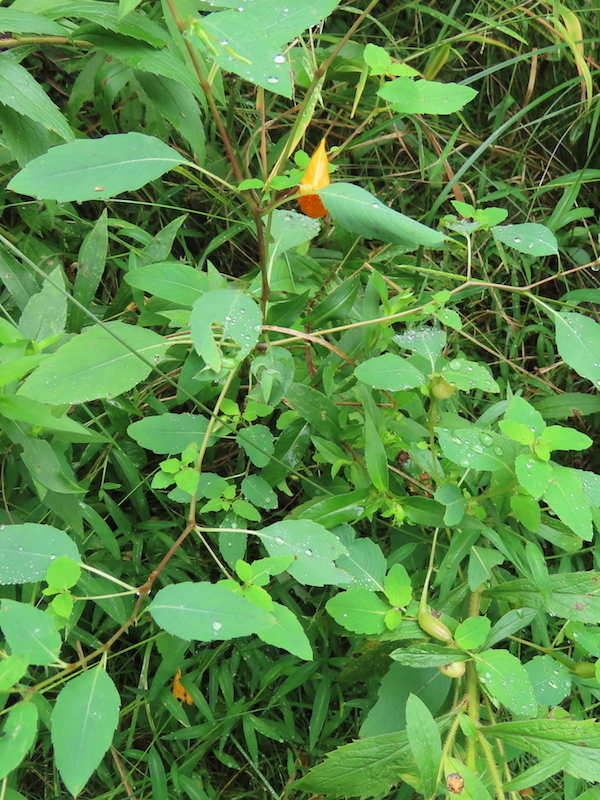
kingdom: Animalia
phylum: Arthropoda
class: Insecta
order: Diptera
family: Cecidomyiidae
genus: Schizomyia
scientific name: Schizomyia impatientis
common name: Jewelweed gall midge
